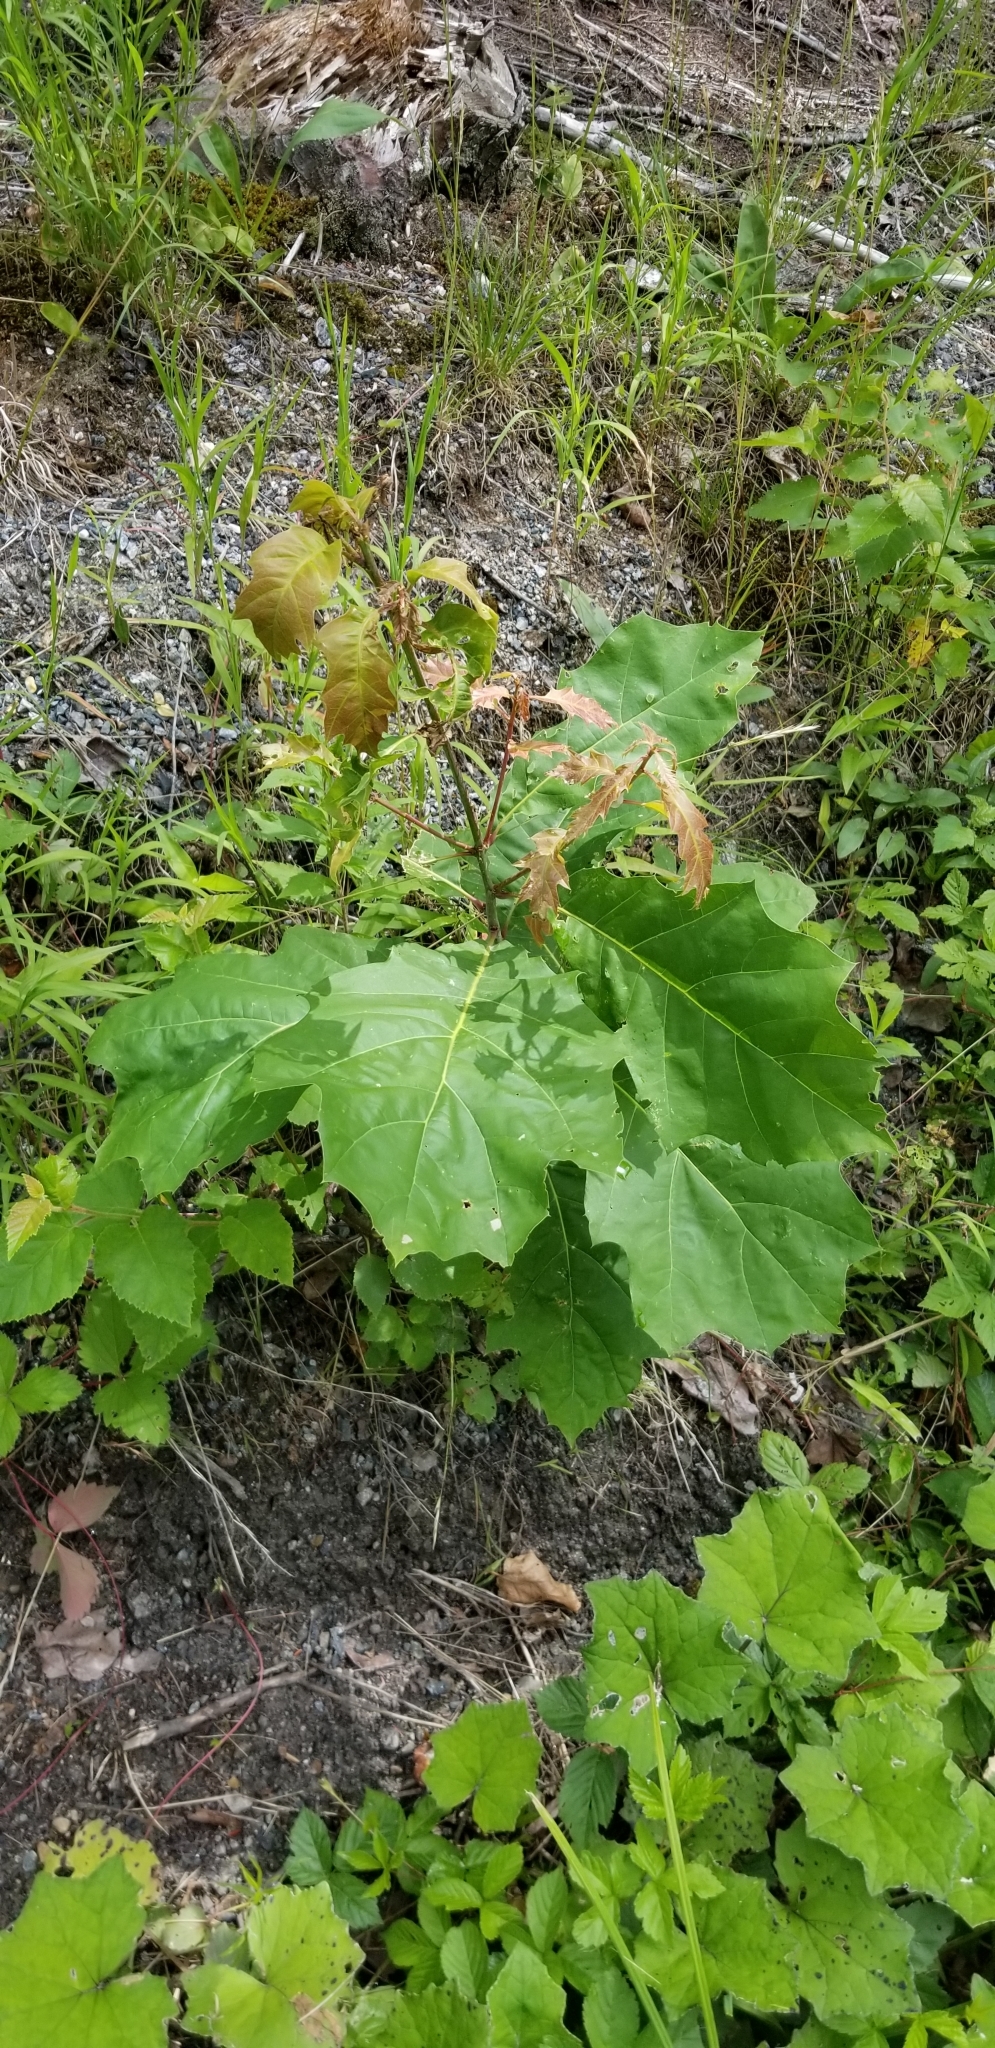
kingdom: Plantae
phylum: Tracheophyta
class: Magnoliopsida
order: Fagales
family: Fagaceae
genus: Quercus
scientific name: Quercus rubra
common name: Red oak
